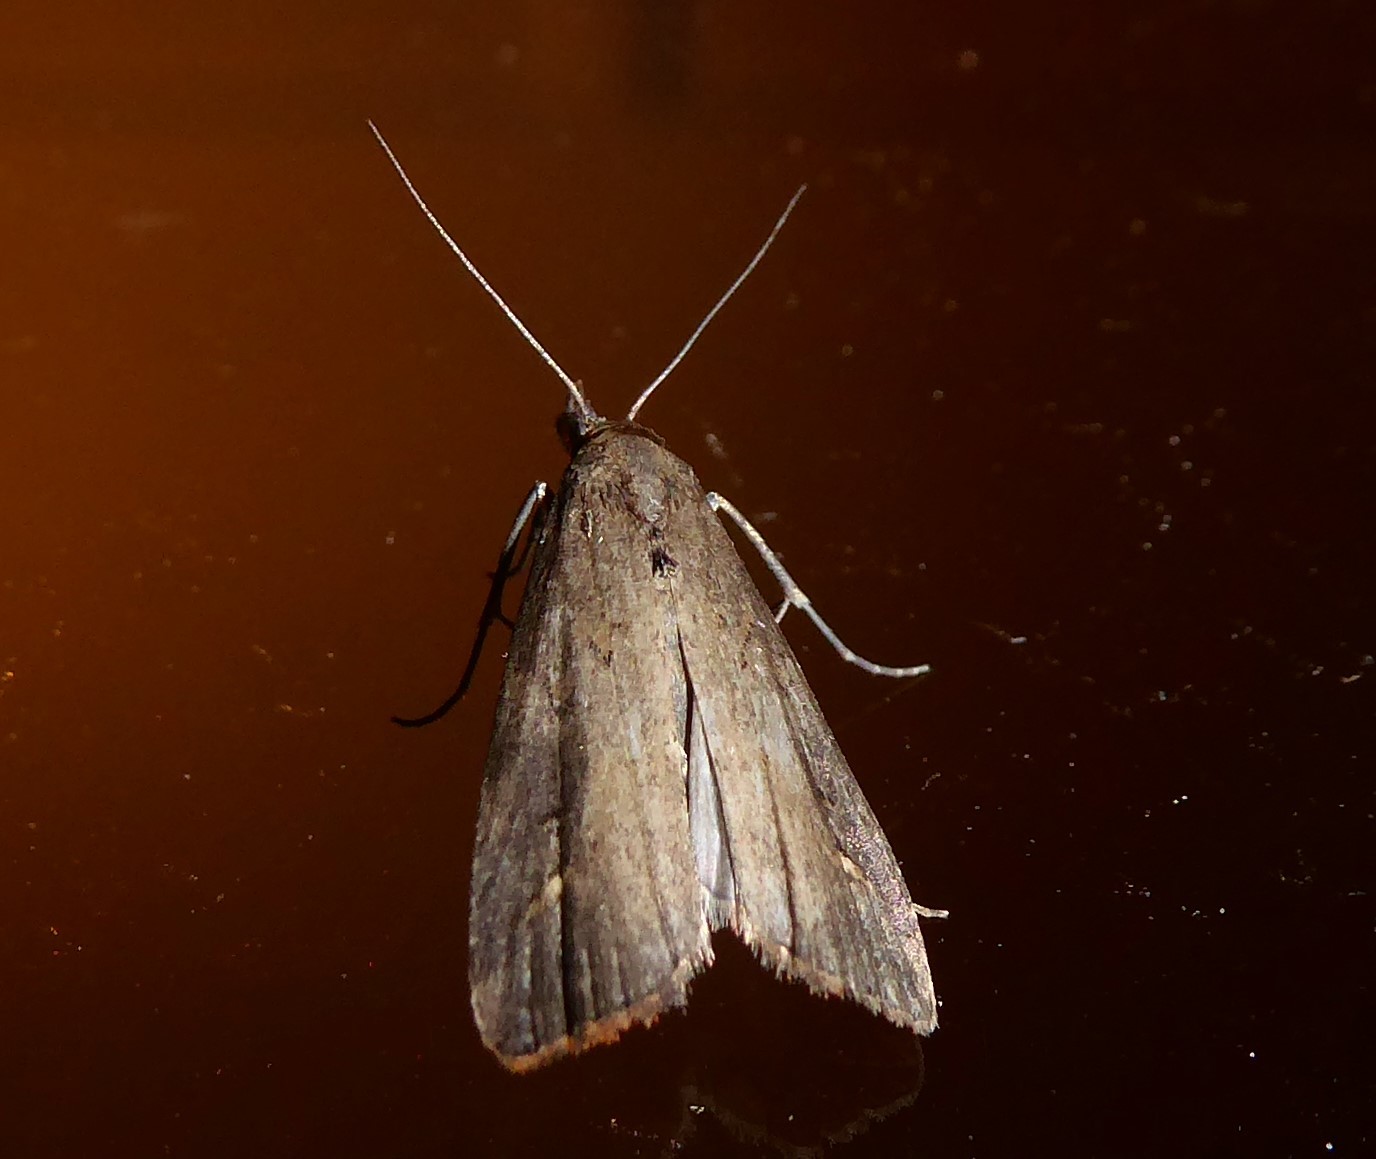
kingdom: Animalia
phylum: Arthropoda
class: Insecta
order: Lepidoptera
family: Erebidae
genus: Schrankia
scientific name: Schrankia costaestrigalis
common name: Pinion-streaked snout
